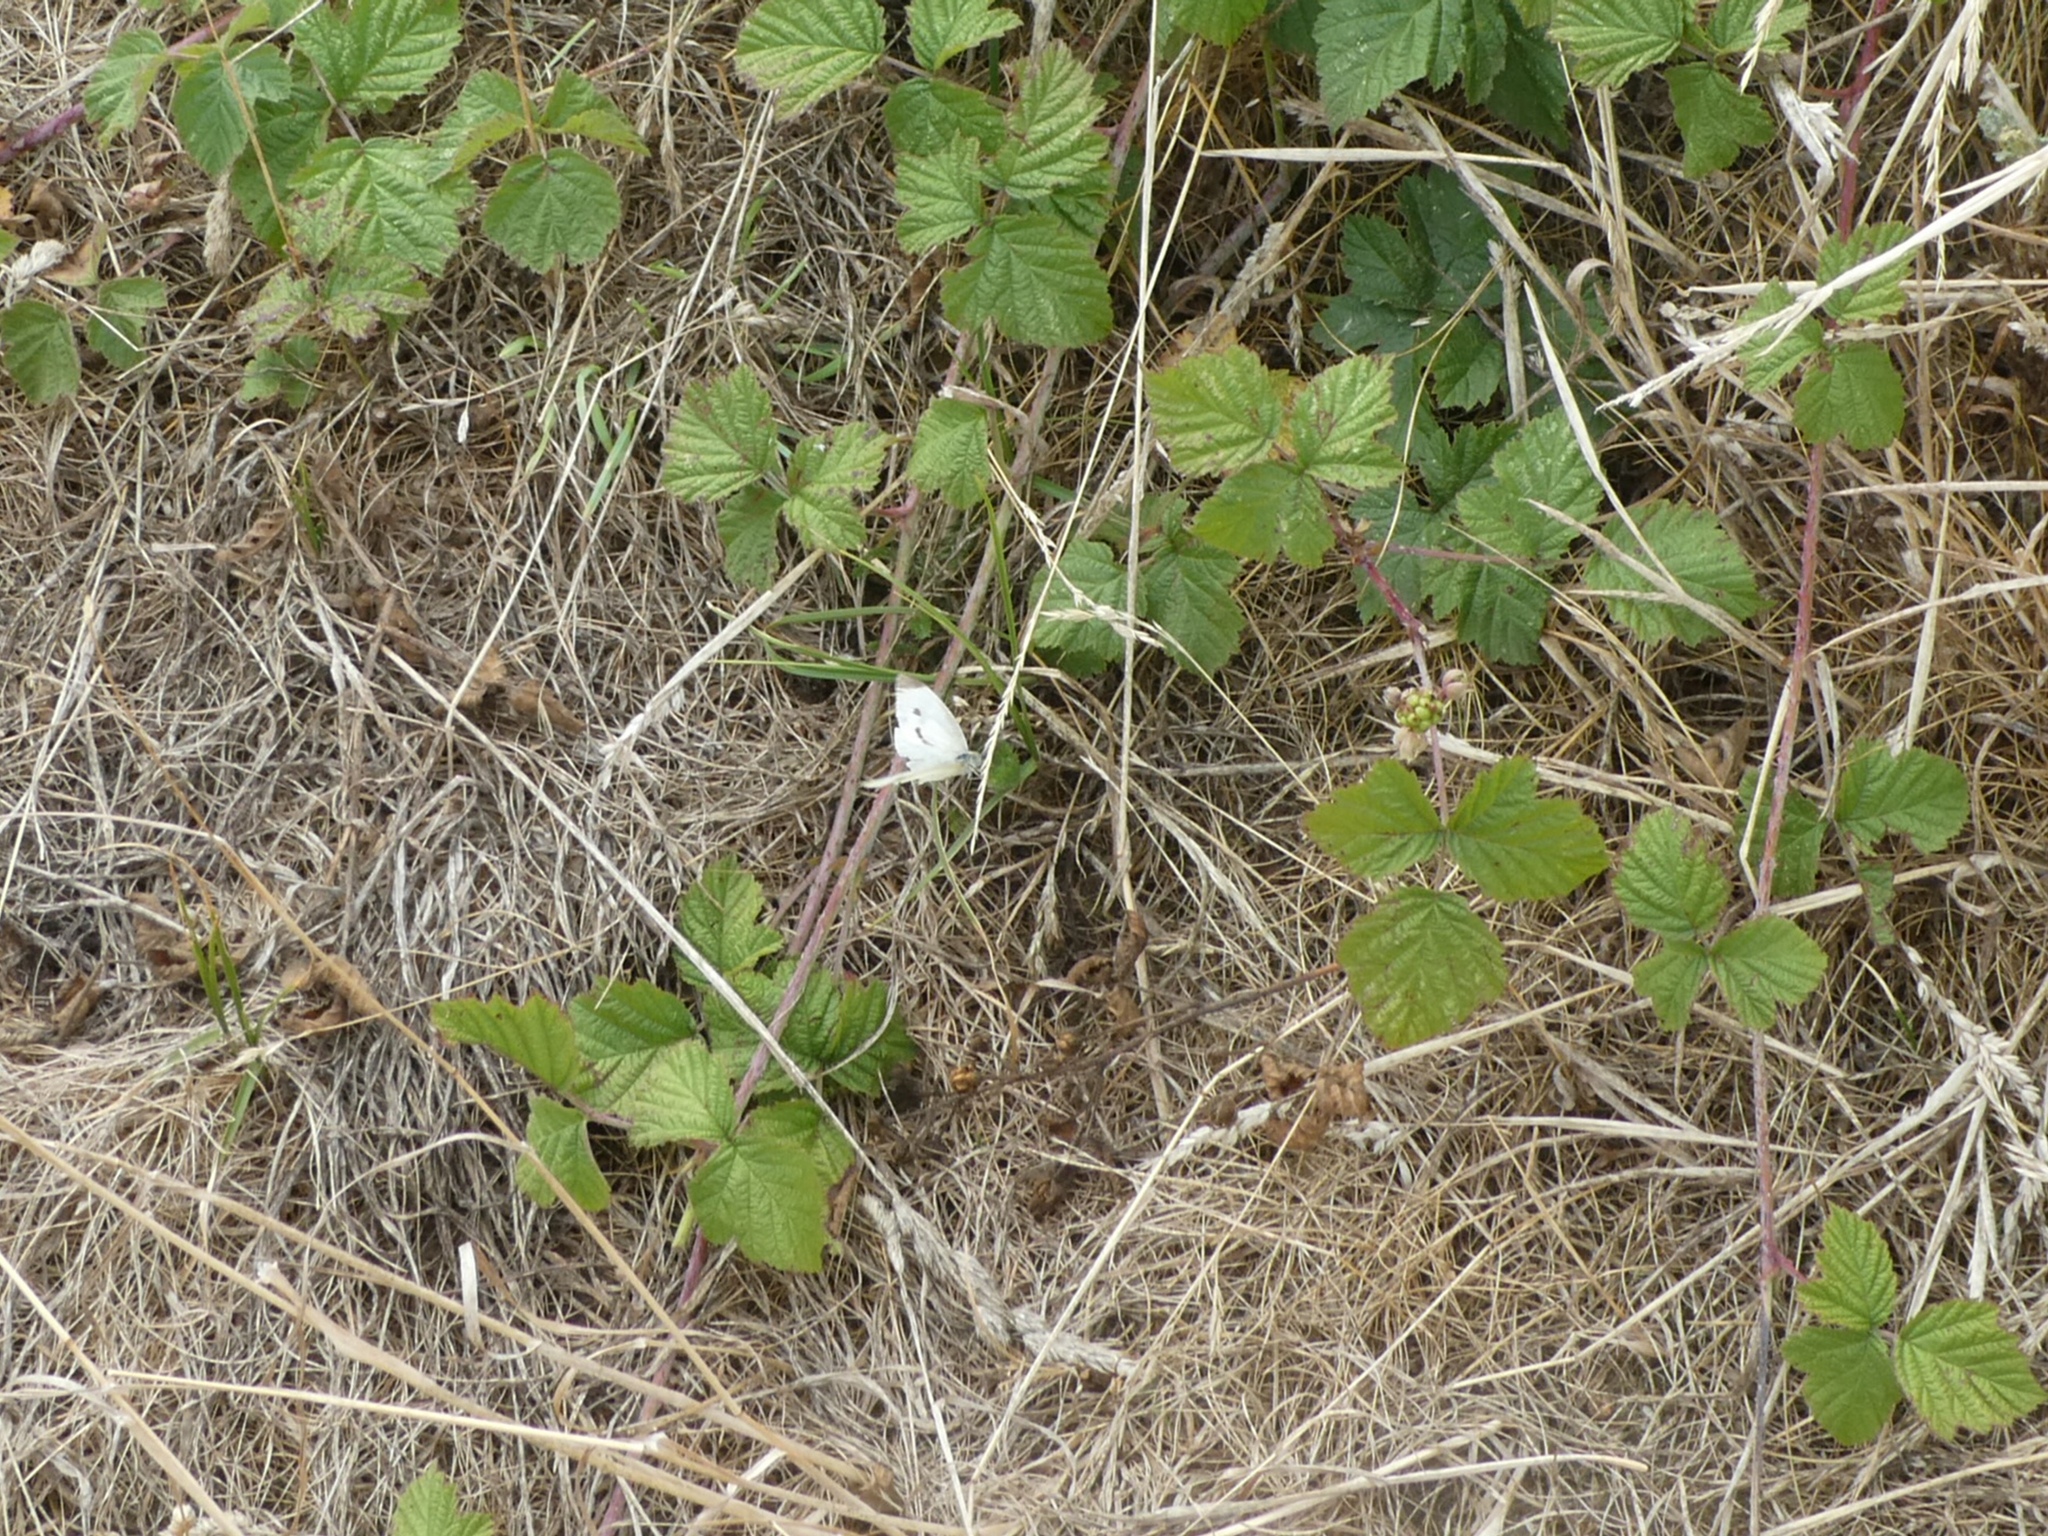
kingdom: Animalia
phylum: Arthropoda
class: Insecta
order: Lepidoptera
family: Pieridae
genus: Pieris
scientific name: Pieris rapae
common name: Small white
